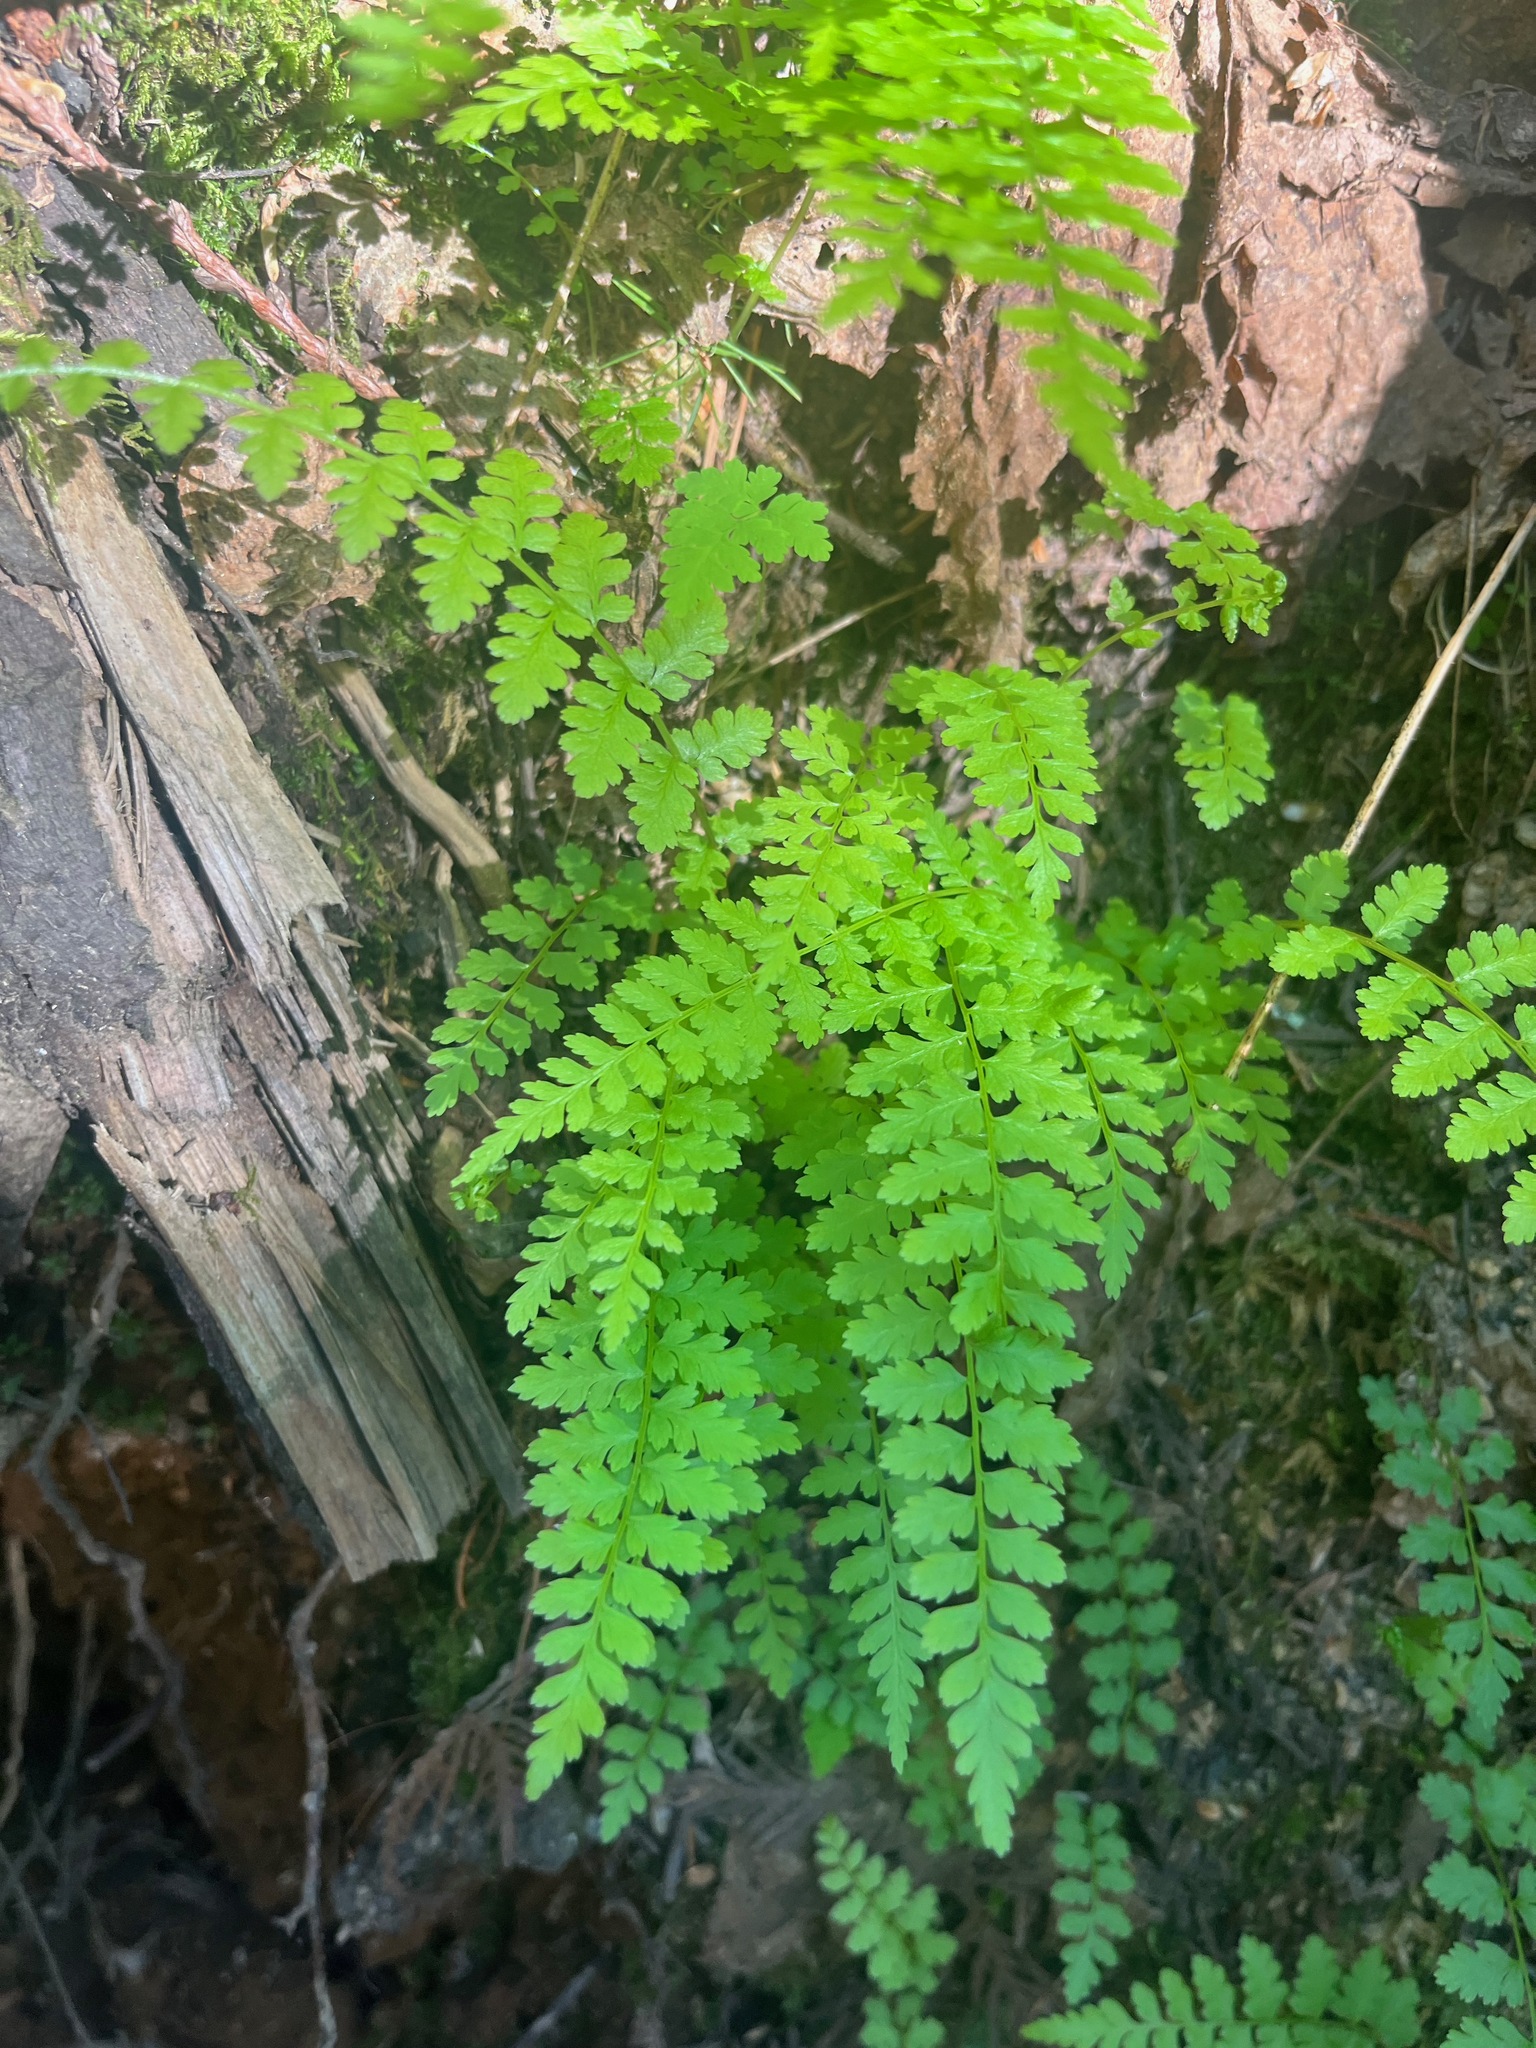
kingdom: Plantae
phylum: Tracheophyta
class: Polypodiopsida
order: Polypodiales
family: Cystopteridaceae
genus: Cystopteris
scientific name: Cystopteris fragilis
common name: Brittle bladder fern
